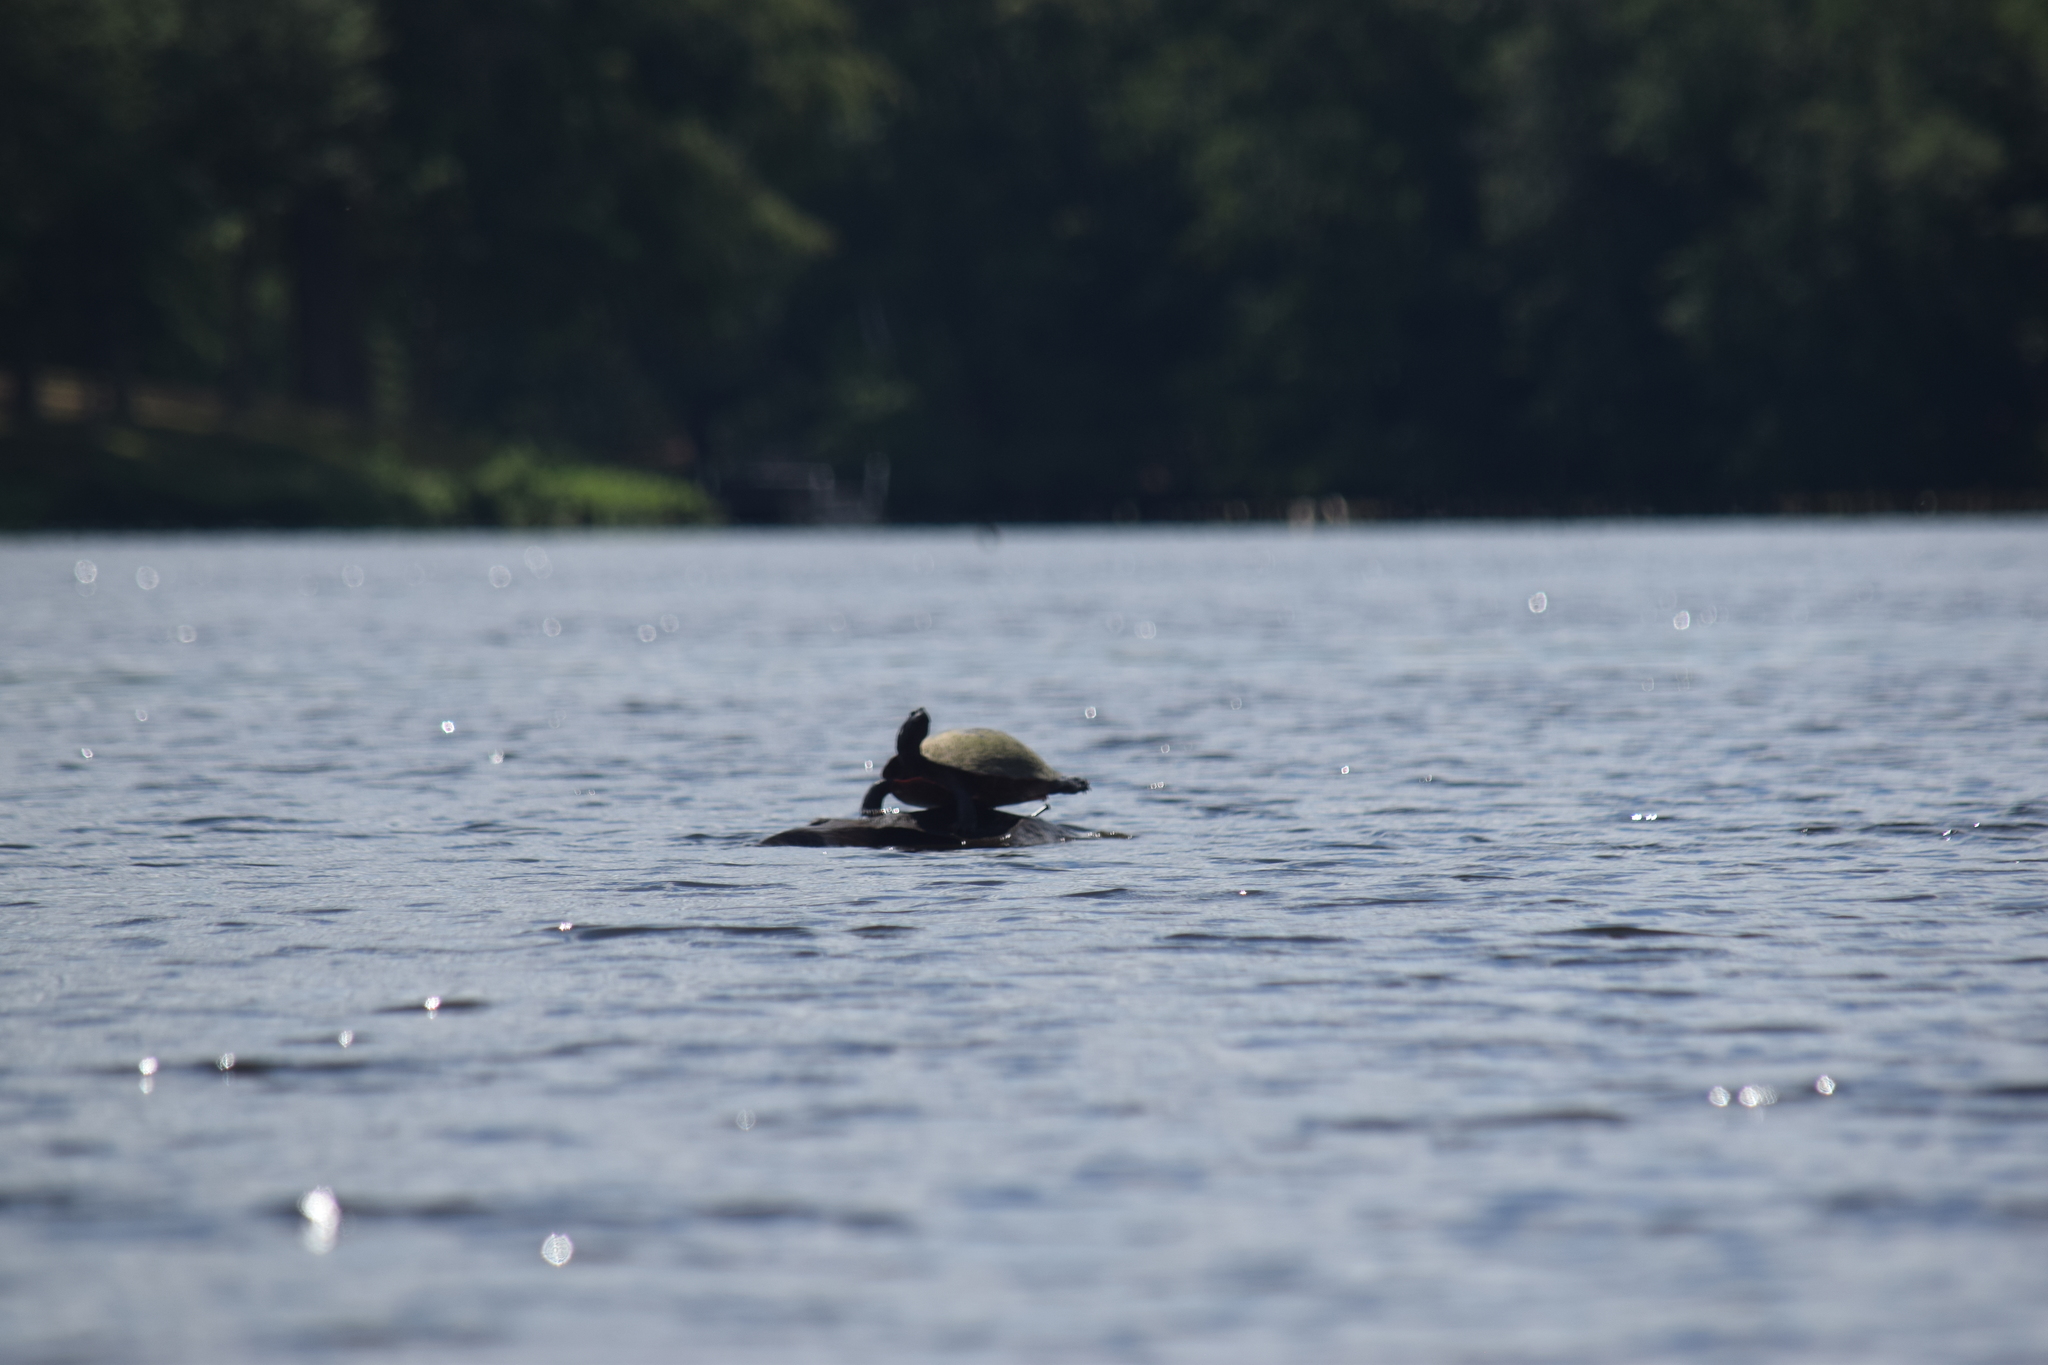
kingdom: Animalia
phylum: Chordata
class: Testudines
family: Emydidae
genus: Pseudemys
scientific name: Pseudemys rubriventris
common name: American red-bellied turtle
